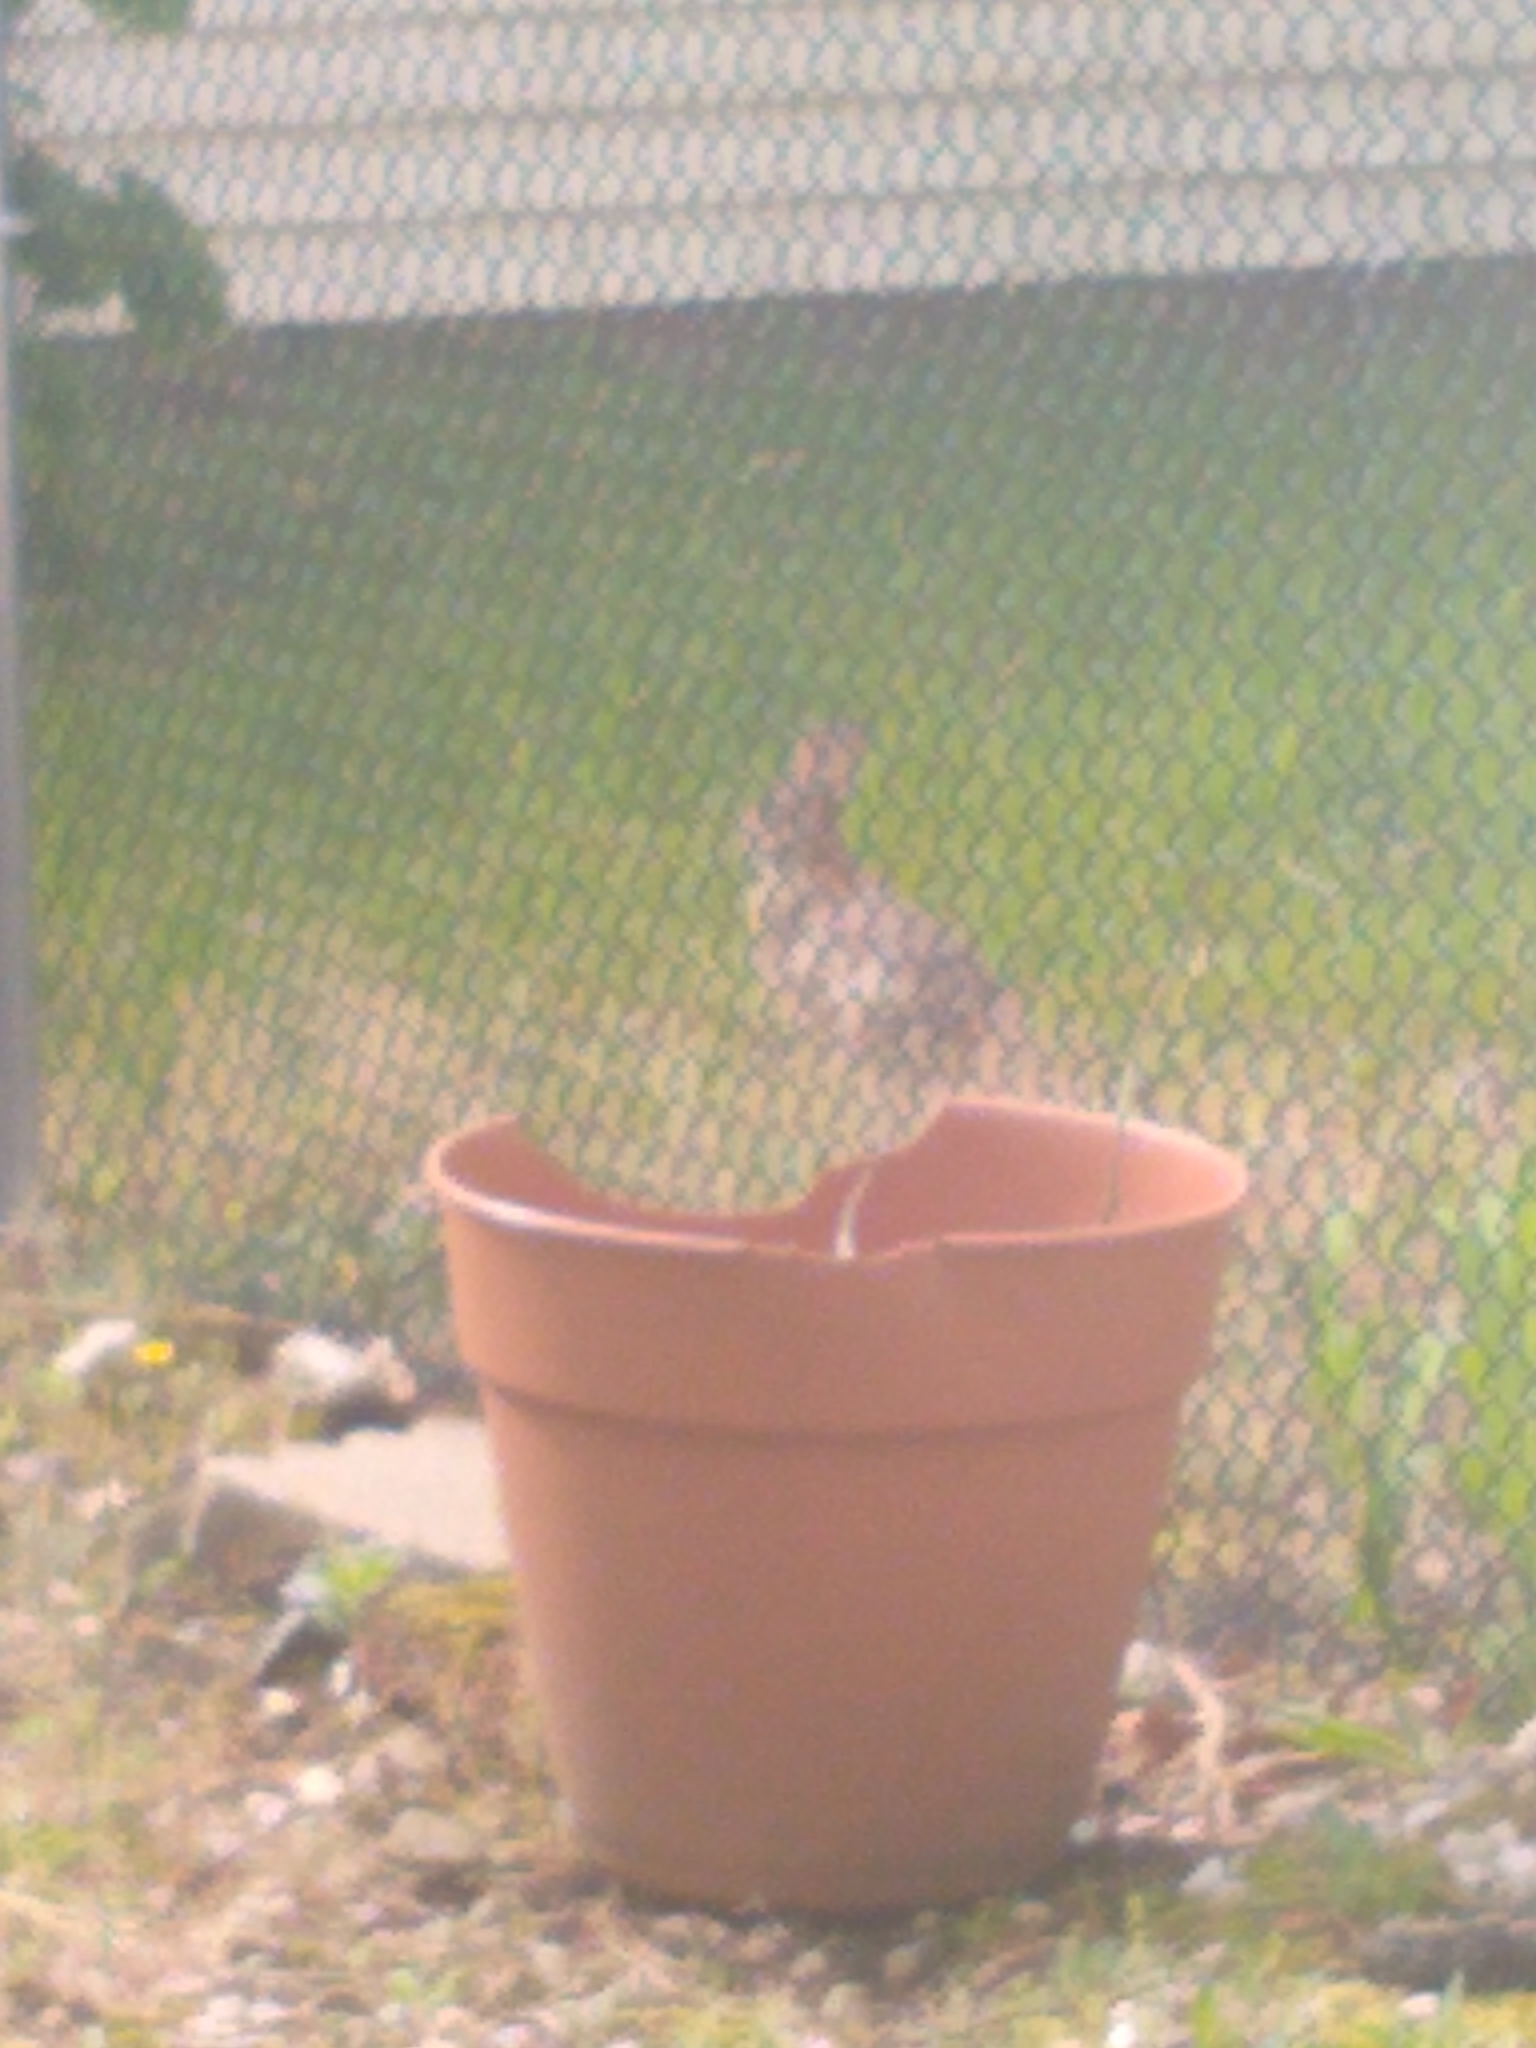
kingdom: Animalia
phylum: Chordata
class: Mammalia
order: Lagomorpha
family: Leporidae
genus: Sylvilagus
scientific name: Sylvilagus floridanus
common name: Eastern cottontail
